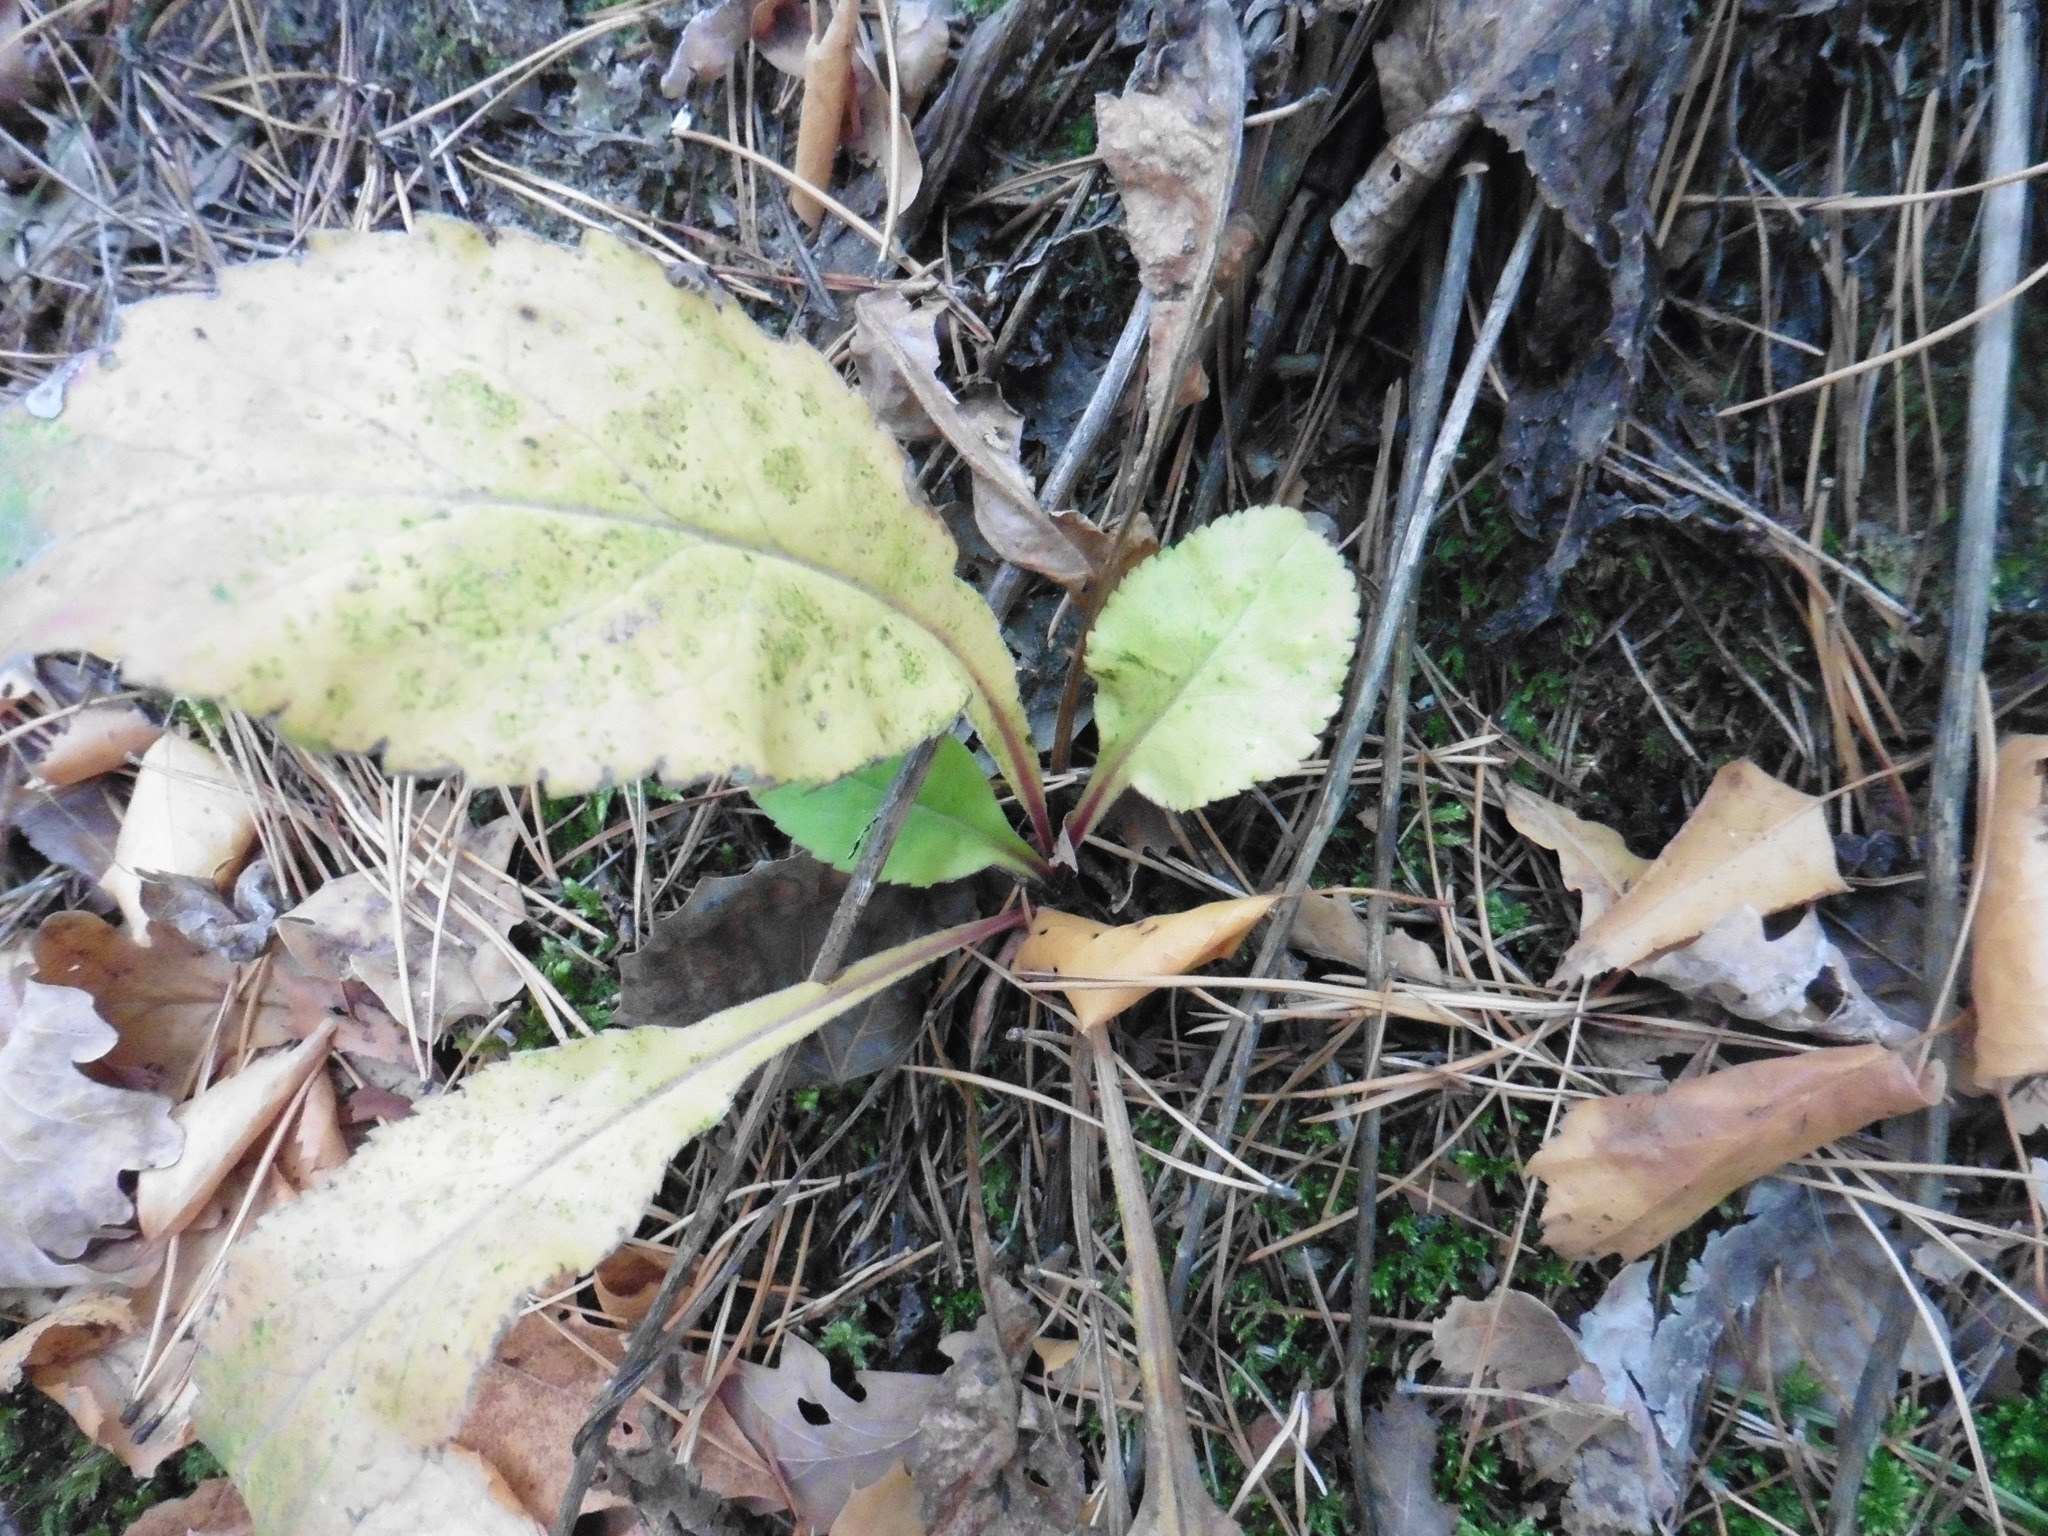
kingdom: Plantae
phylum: Tracheophyta
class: Magnoliopsida
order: Asterales
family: Asteraceae
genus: Solidago
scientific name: Solidago virgaurea
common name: Goldenrod
